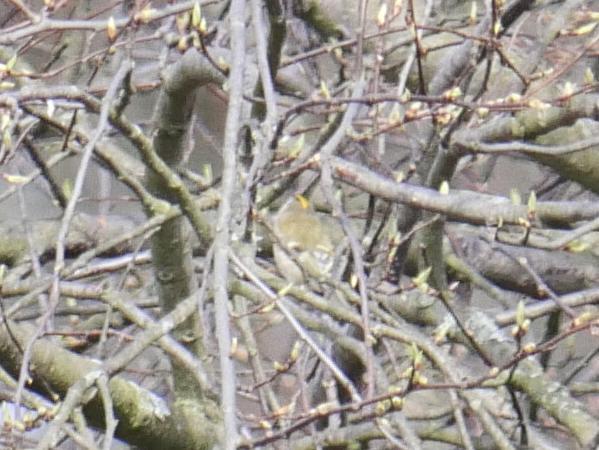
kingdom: Animalia
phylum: Chordata
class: Aves
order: Passeriformes
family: Regulidae
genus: Regulus
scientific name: Regulus regulus
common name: Goldcrest
